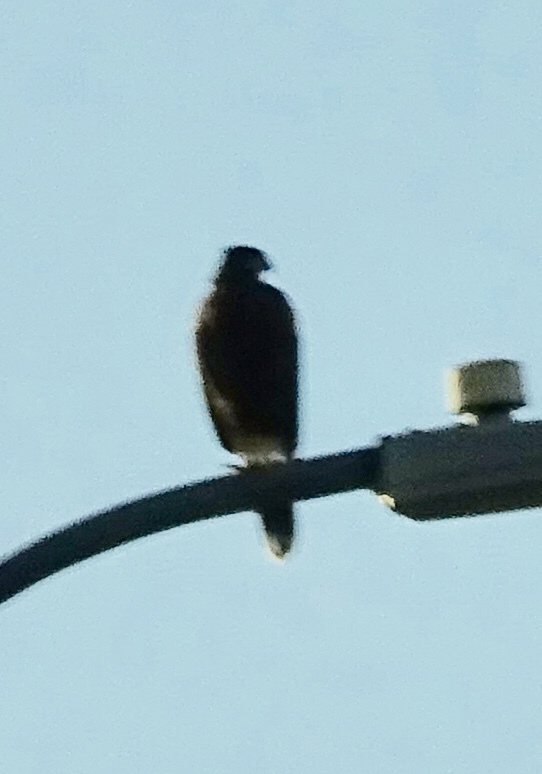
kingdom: Animalia
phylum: Chordata
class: Aves
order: Accipitriformes
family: Accipitridae
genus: Parabuteo
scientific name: Parabuteo unicinctus
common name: Harris's hawk
